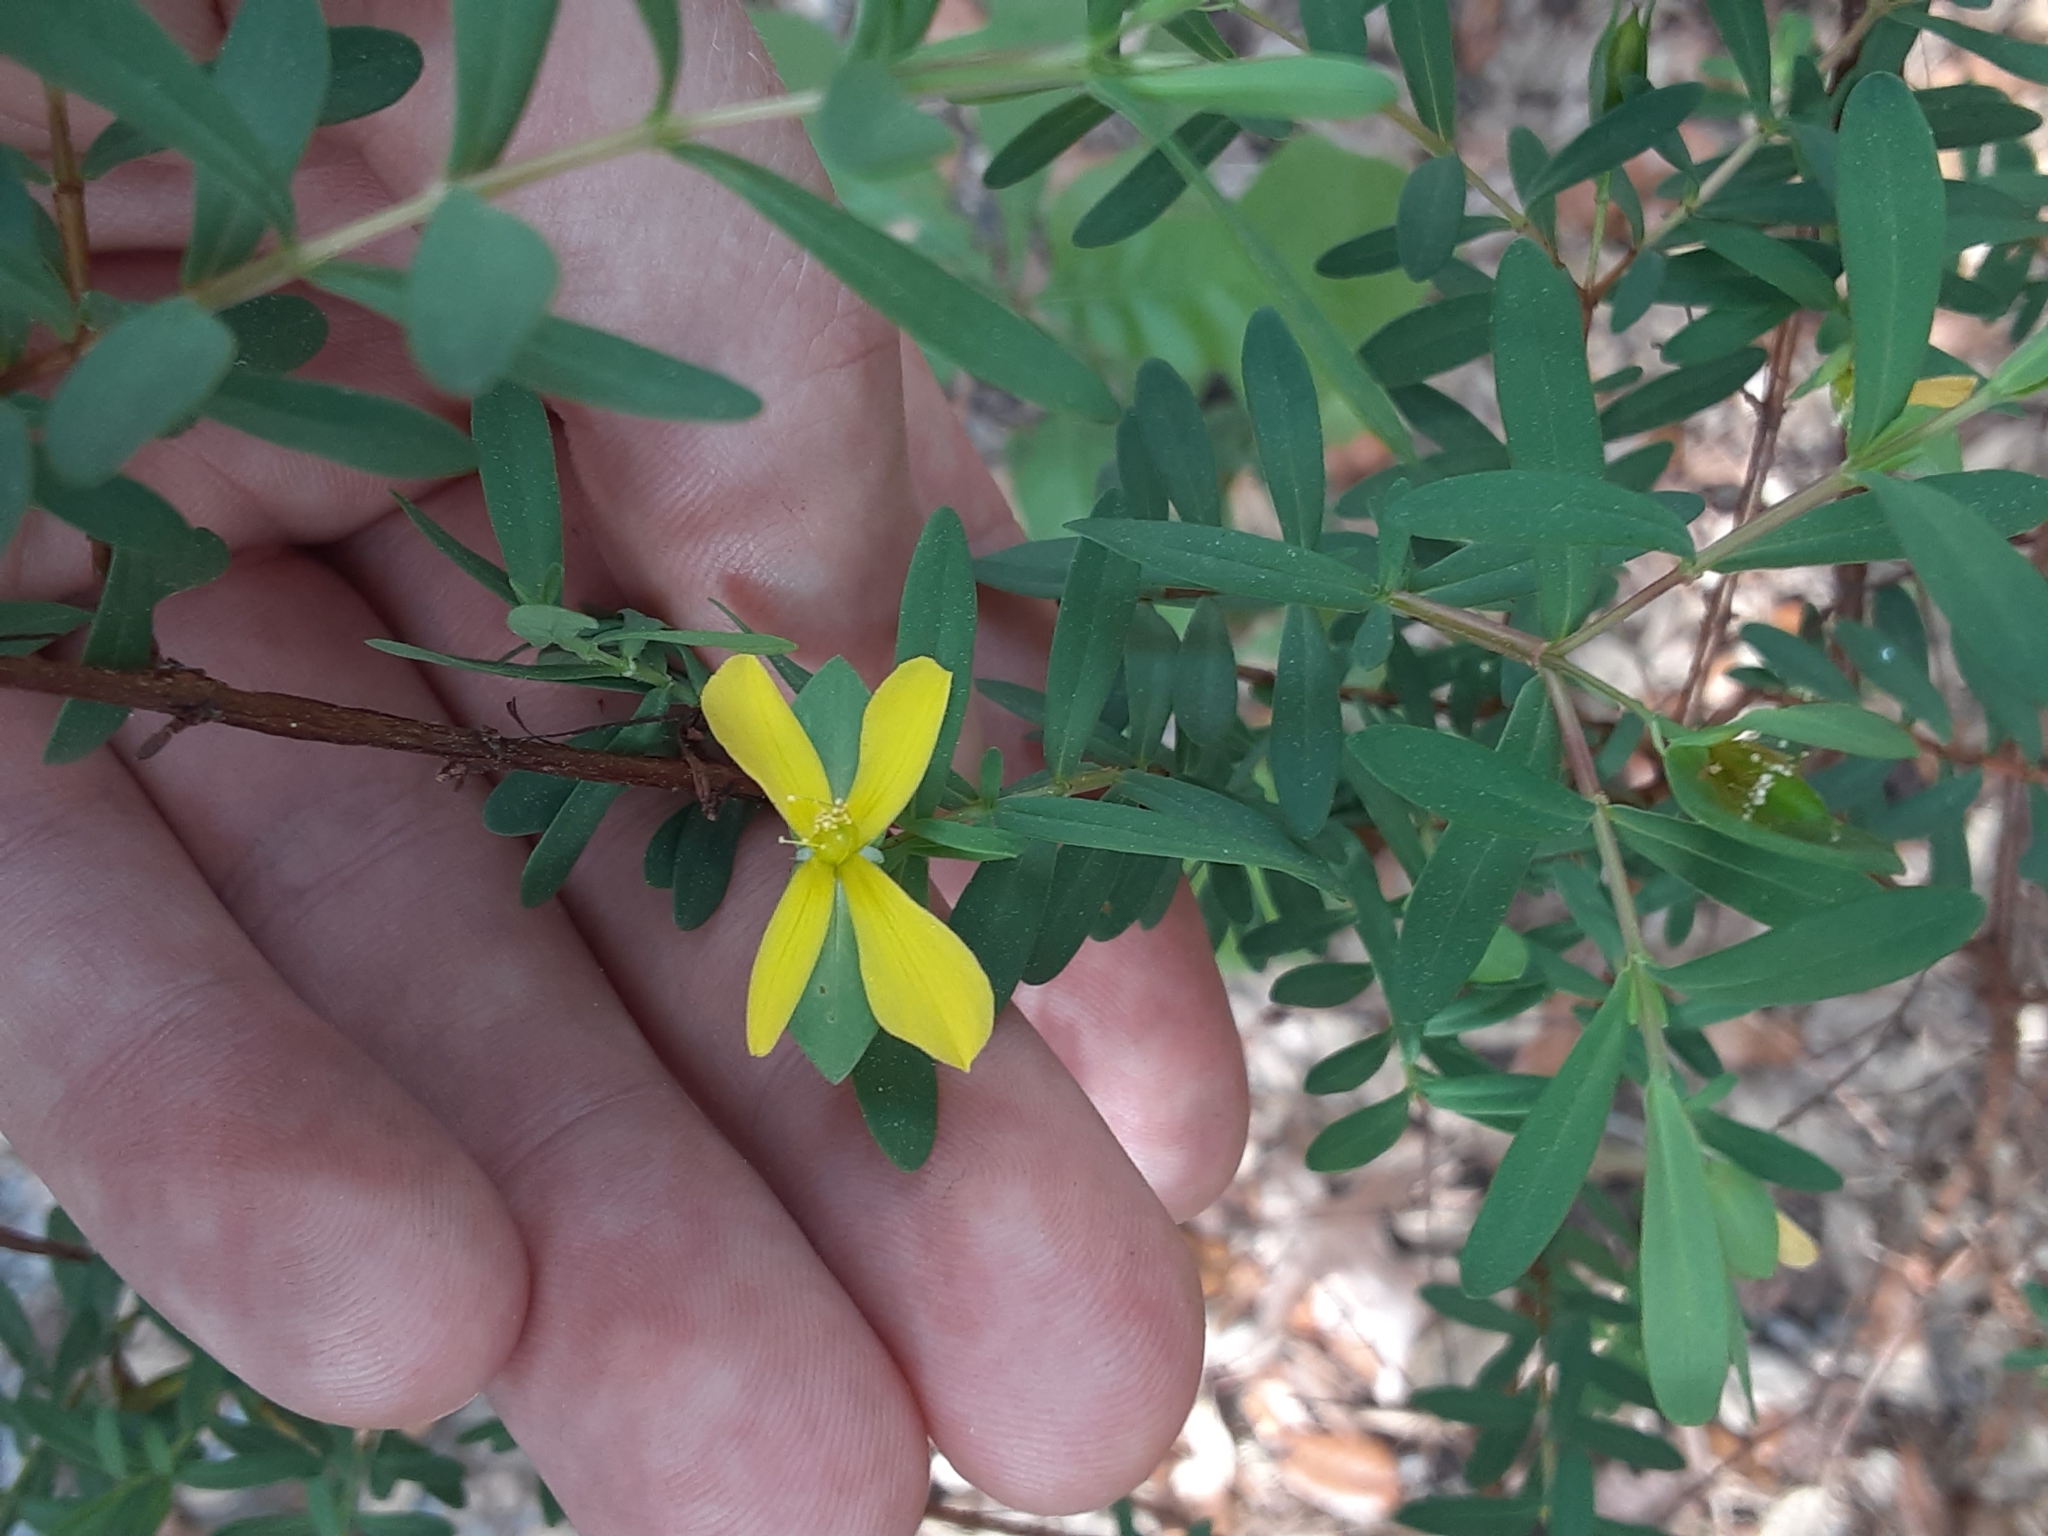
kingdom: Plantae
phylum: Tracheophyta
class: Magnoliopsida
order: Malpighiales
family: Hypericaceae
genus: Hypericum
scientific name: Hypericum hypericoides
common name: St. andrew's cross
